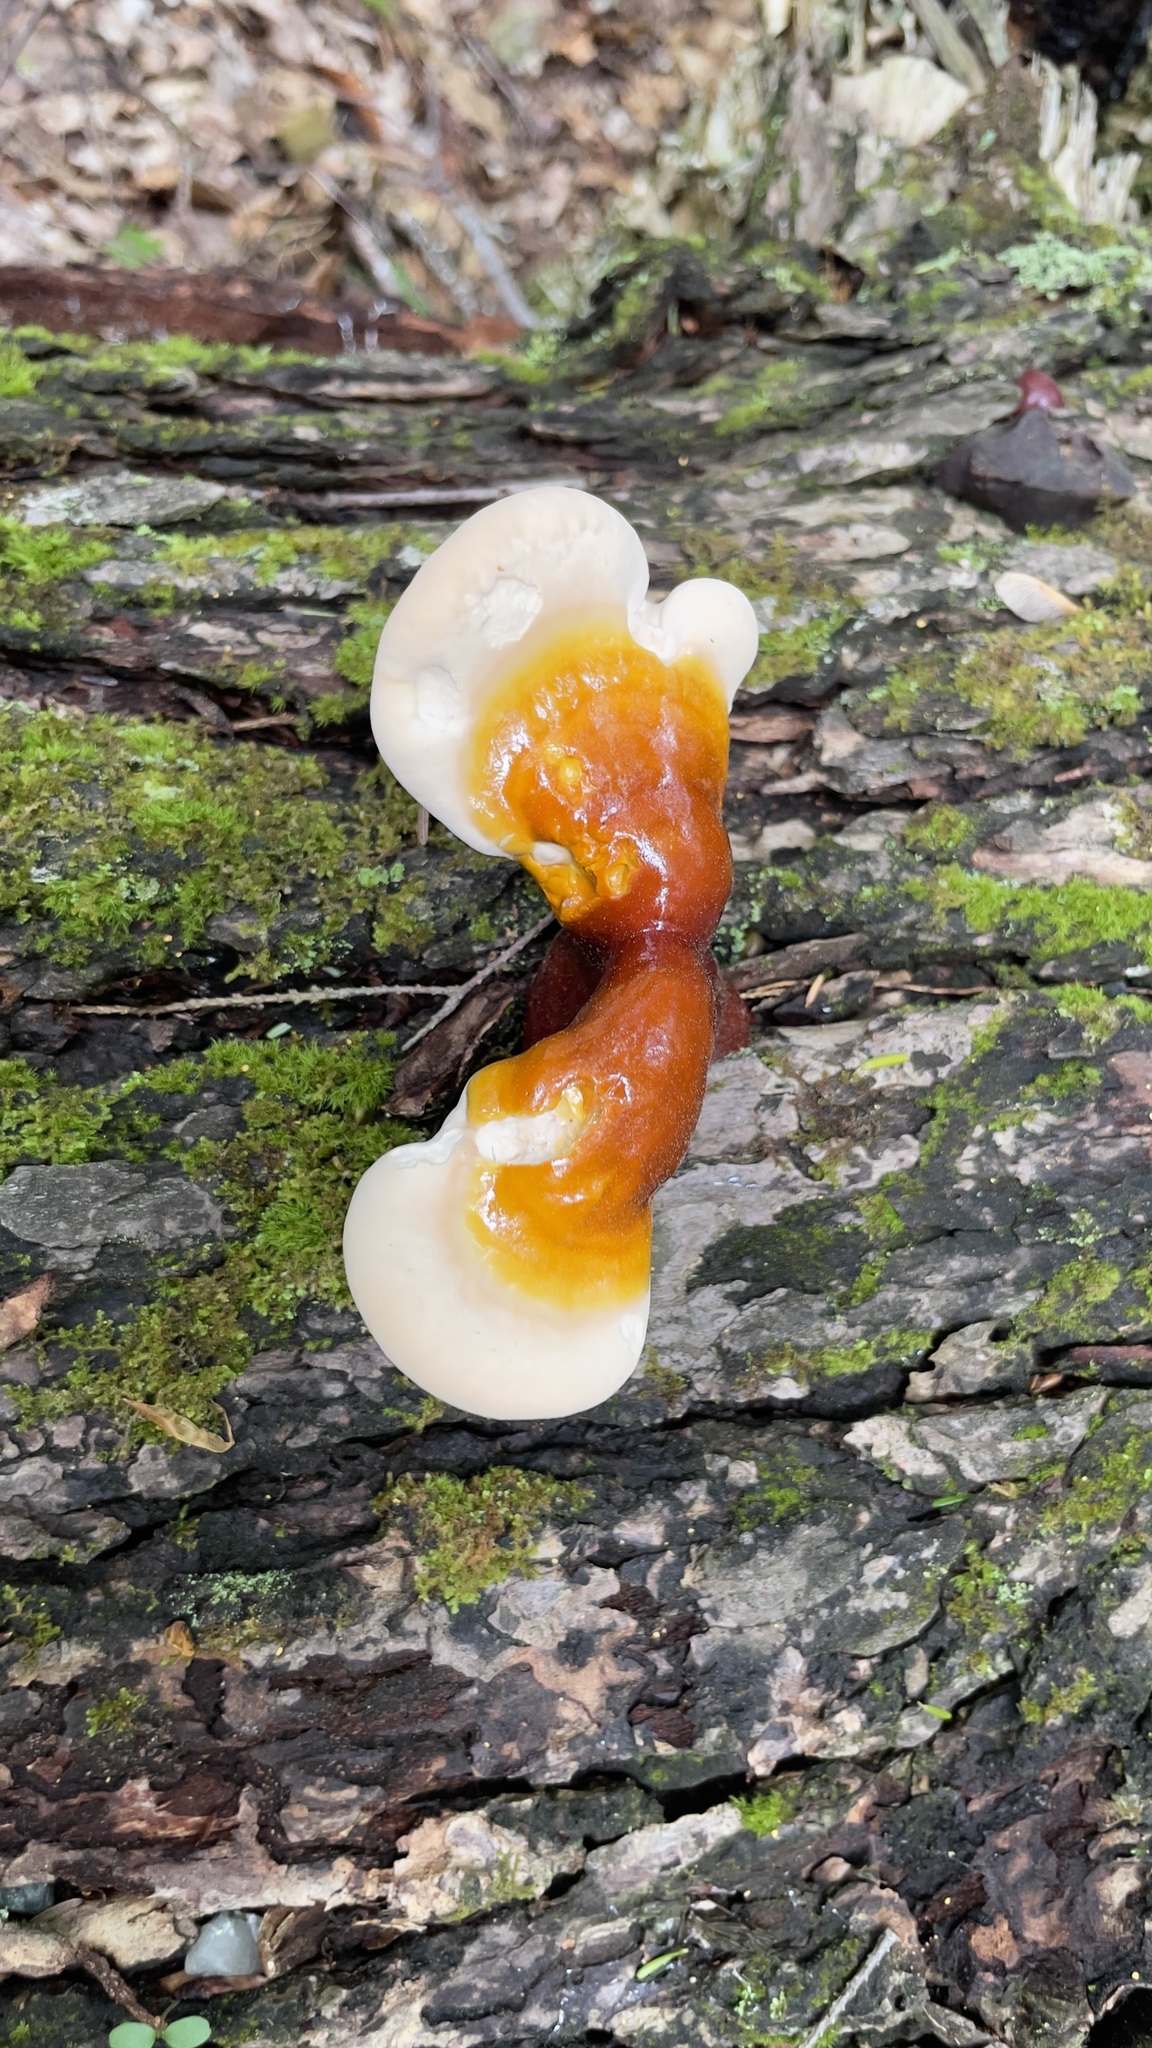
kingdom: Fungi
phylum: Basidiomycota
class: Agaricomycetes
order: Polyporales
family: Polyporaceae
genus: Ganoderma
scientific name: Ganoderma tsugae
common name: Hemlock varnish shelf
